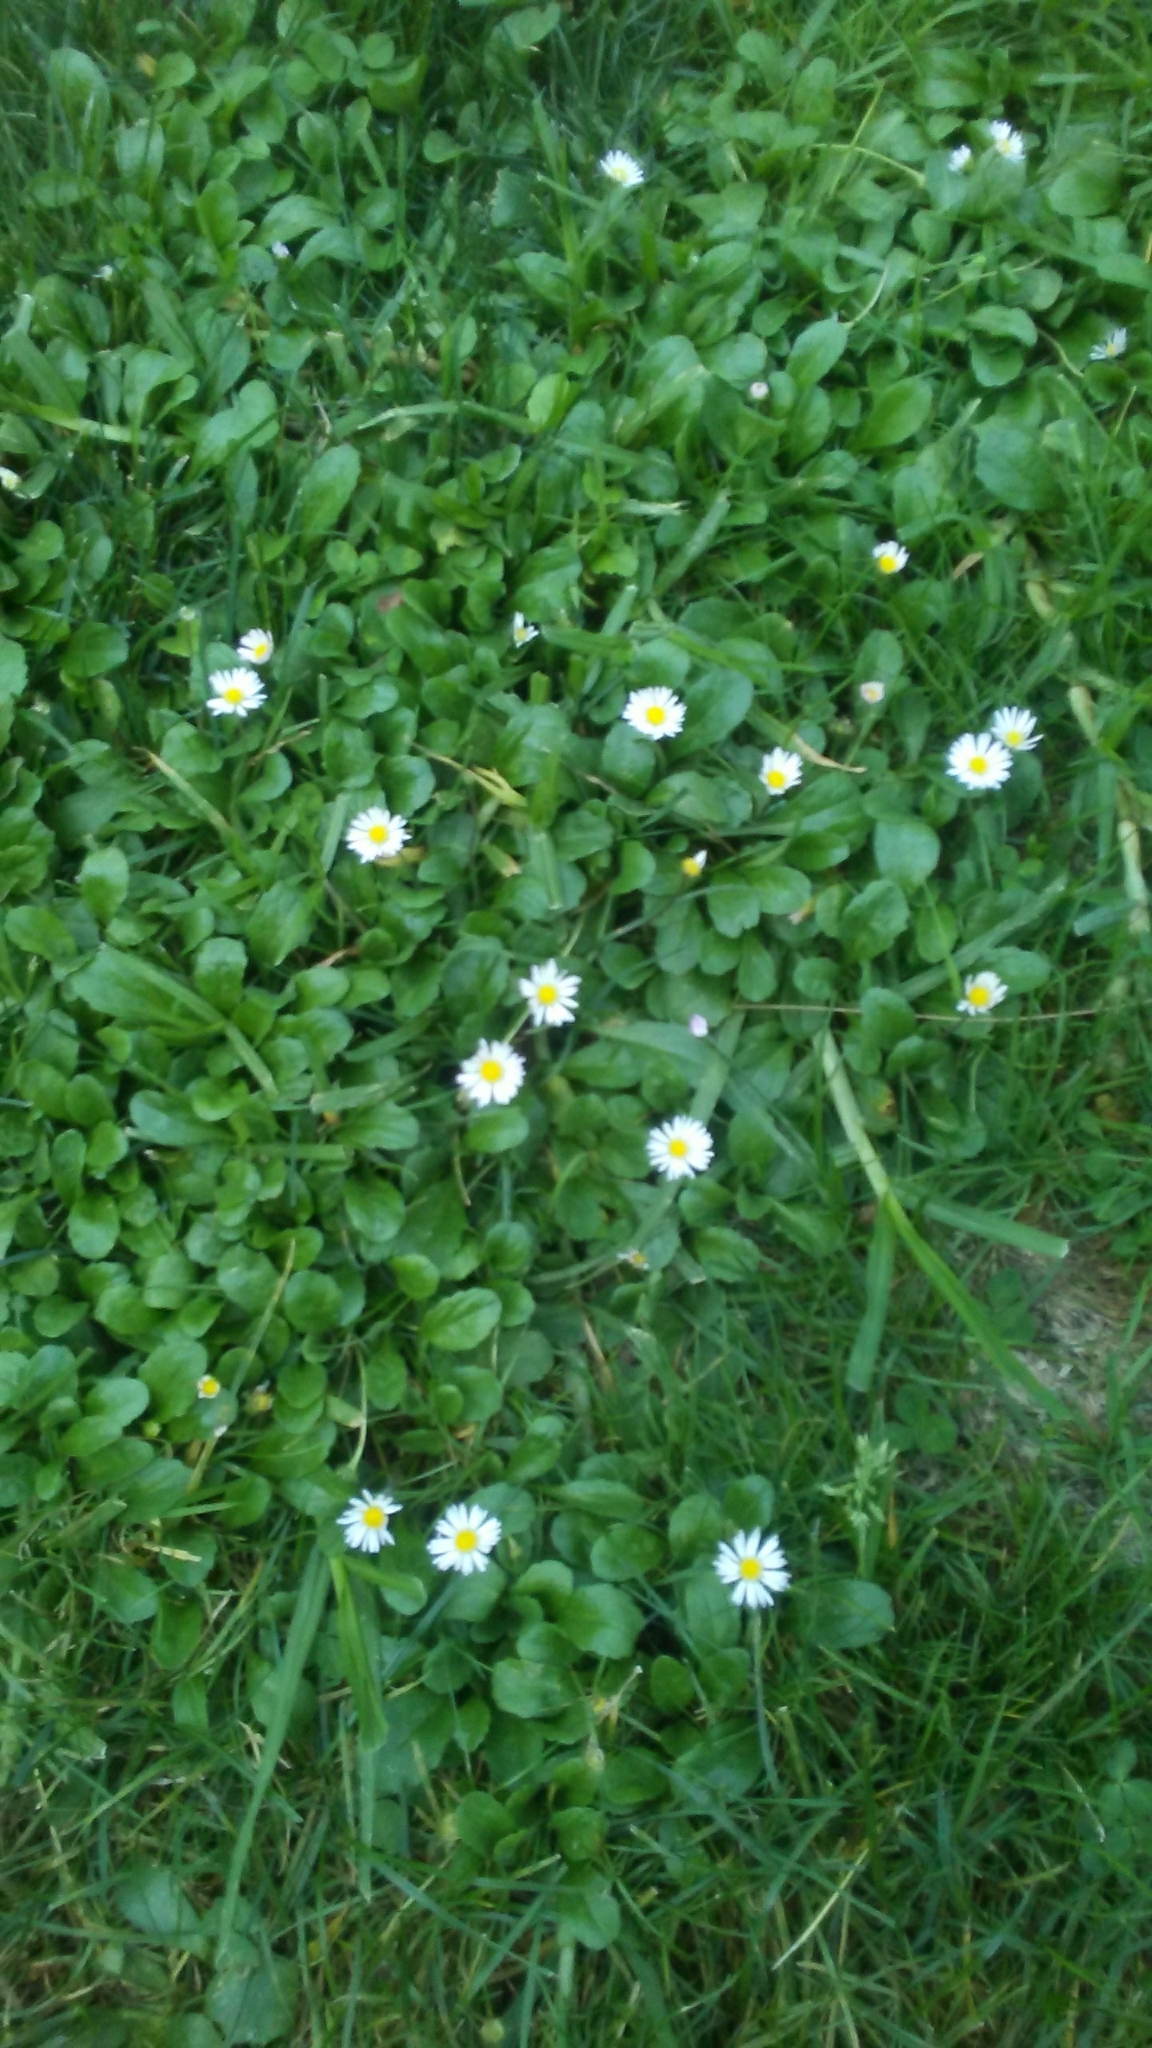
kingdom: Plantae
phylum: Tracheophyta
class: Magnoliopsida
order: Asterales
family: Asteraceae
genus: Bellis
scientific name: Bellis perennis
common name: Lawndaisy
